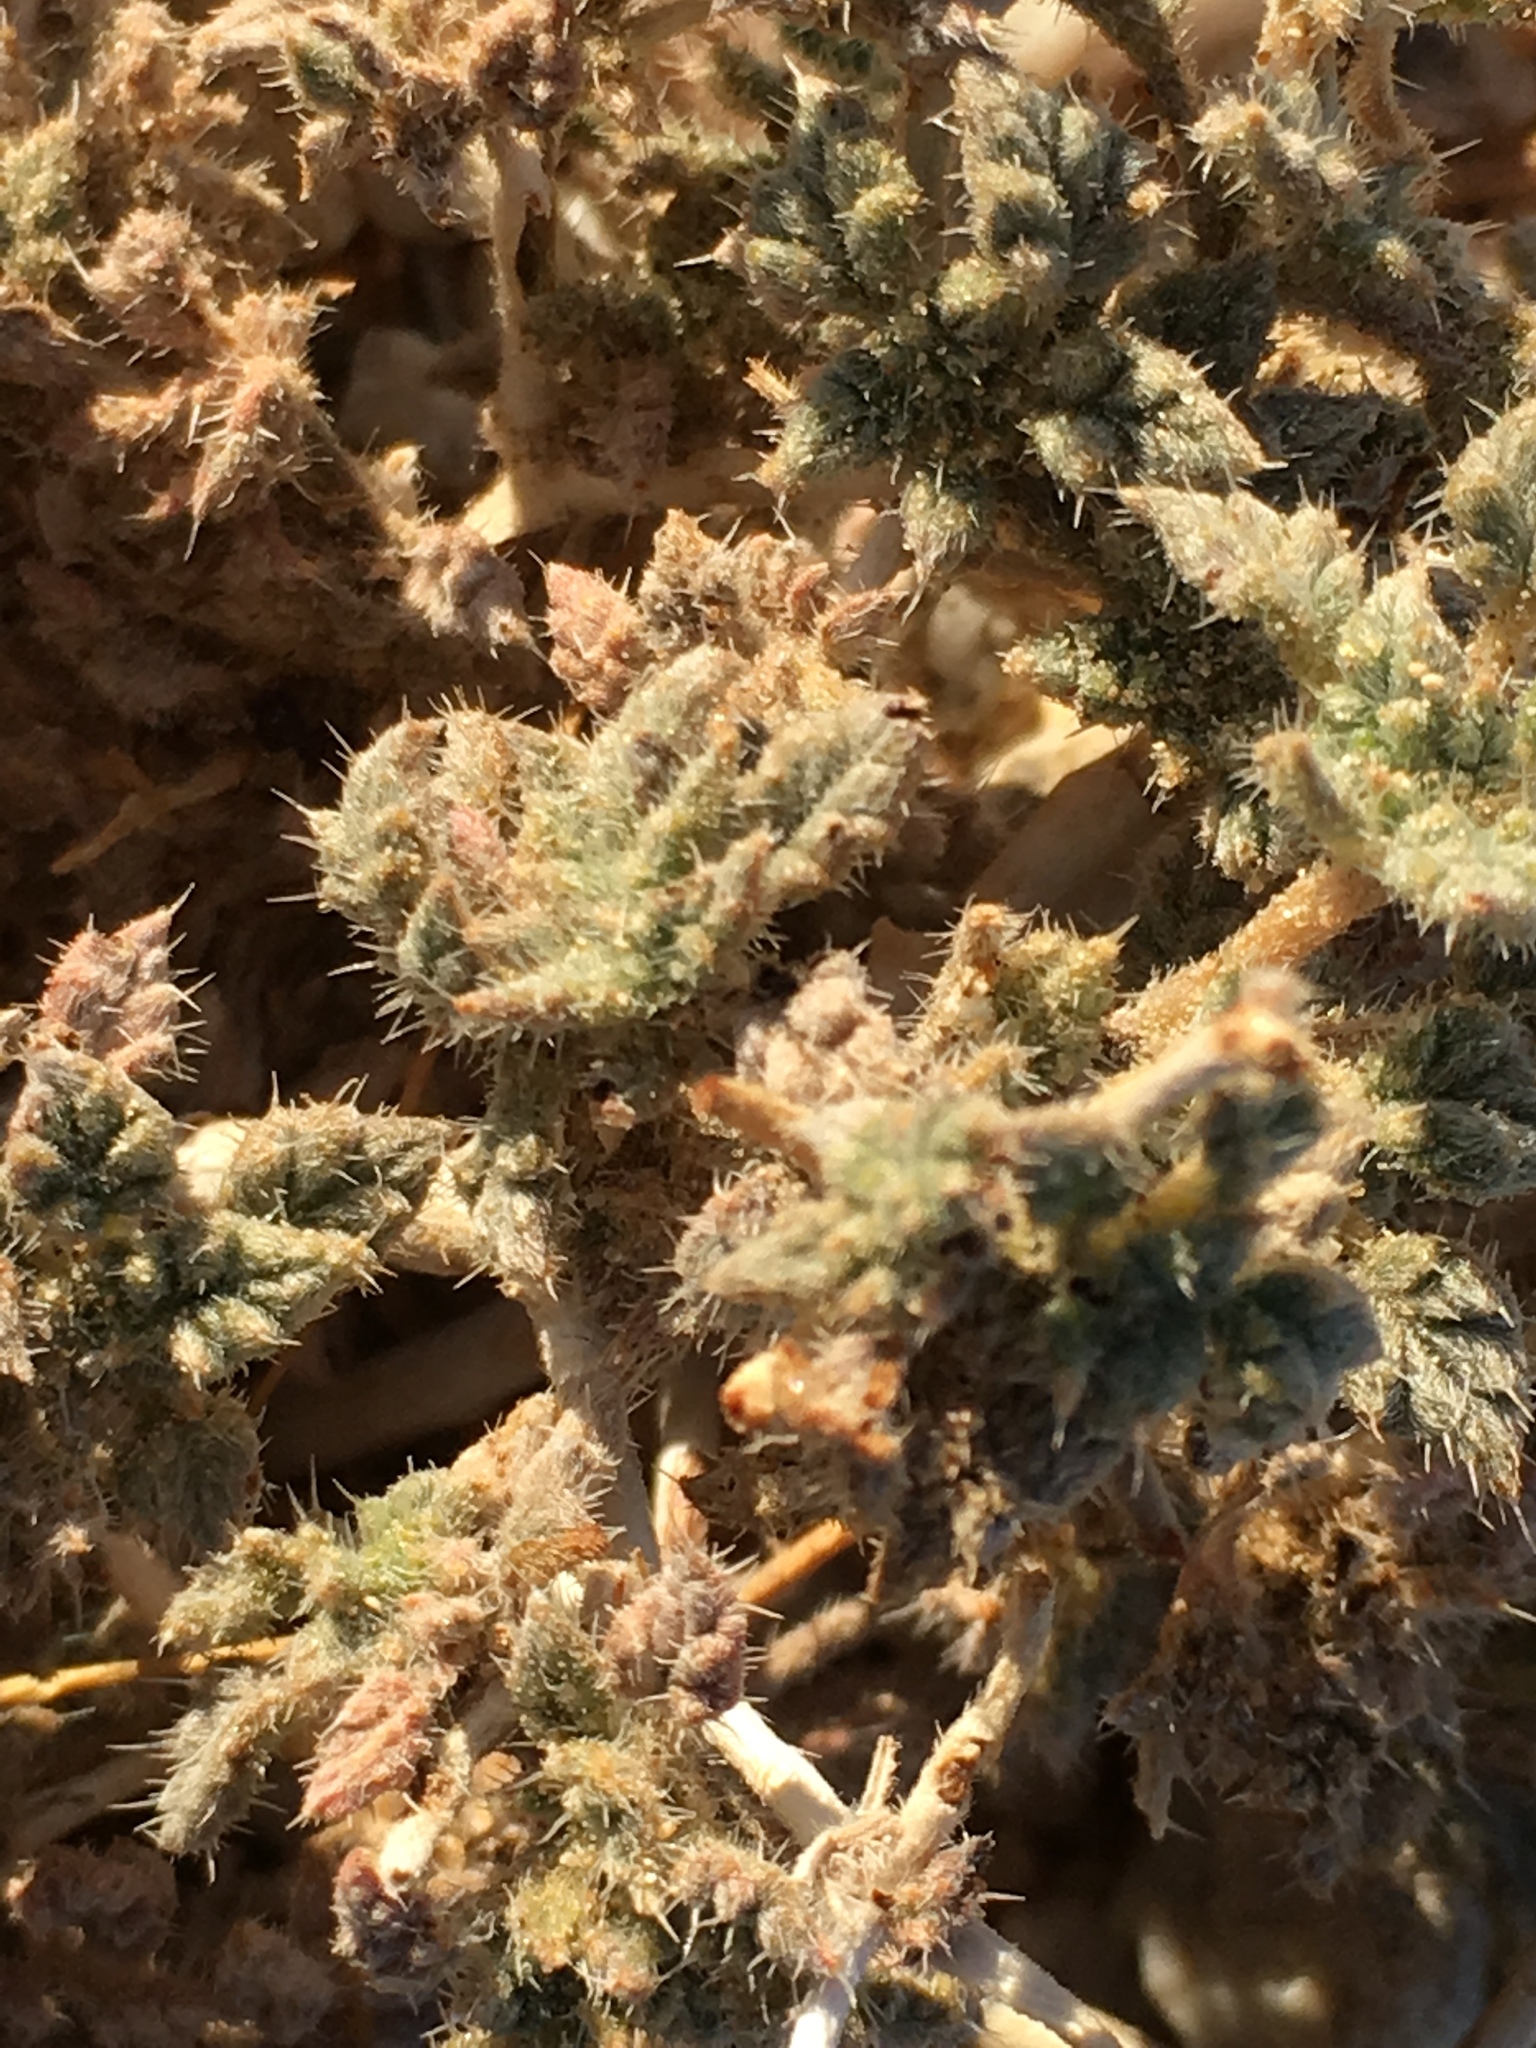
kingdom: Plantae
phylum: Tracheophyta
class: Magnoliopsida
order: Boraginales
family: Ehretiaceae
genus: Tiquilia
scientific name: Tiquilia palmeri
